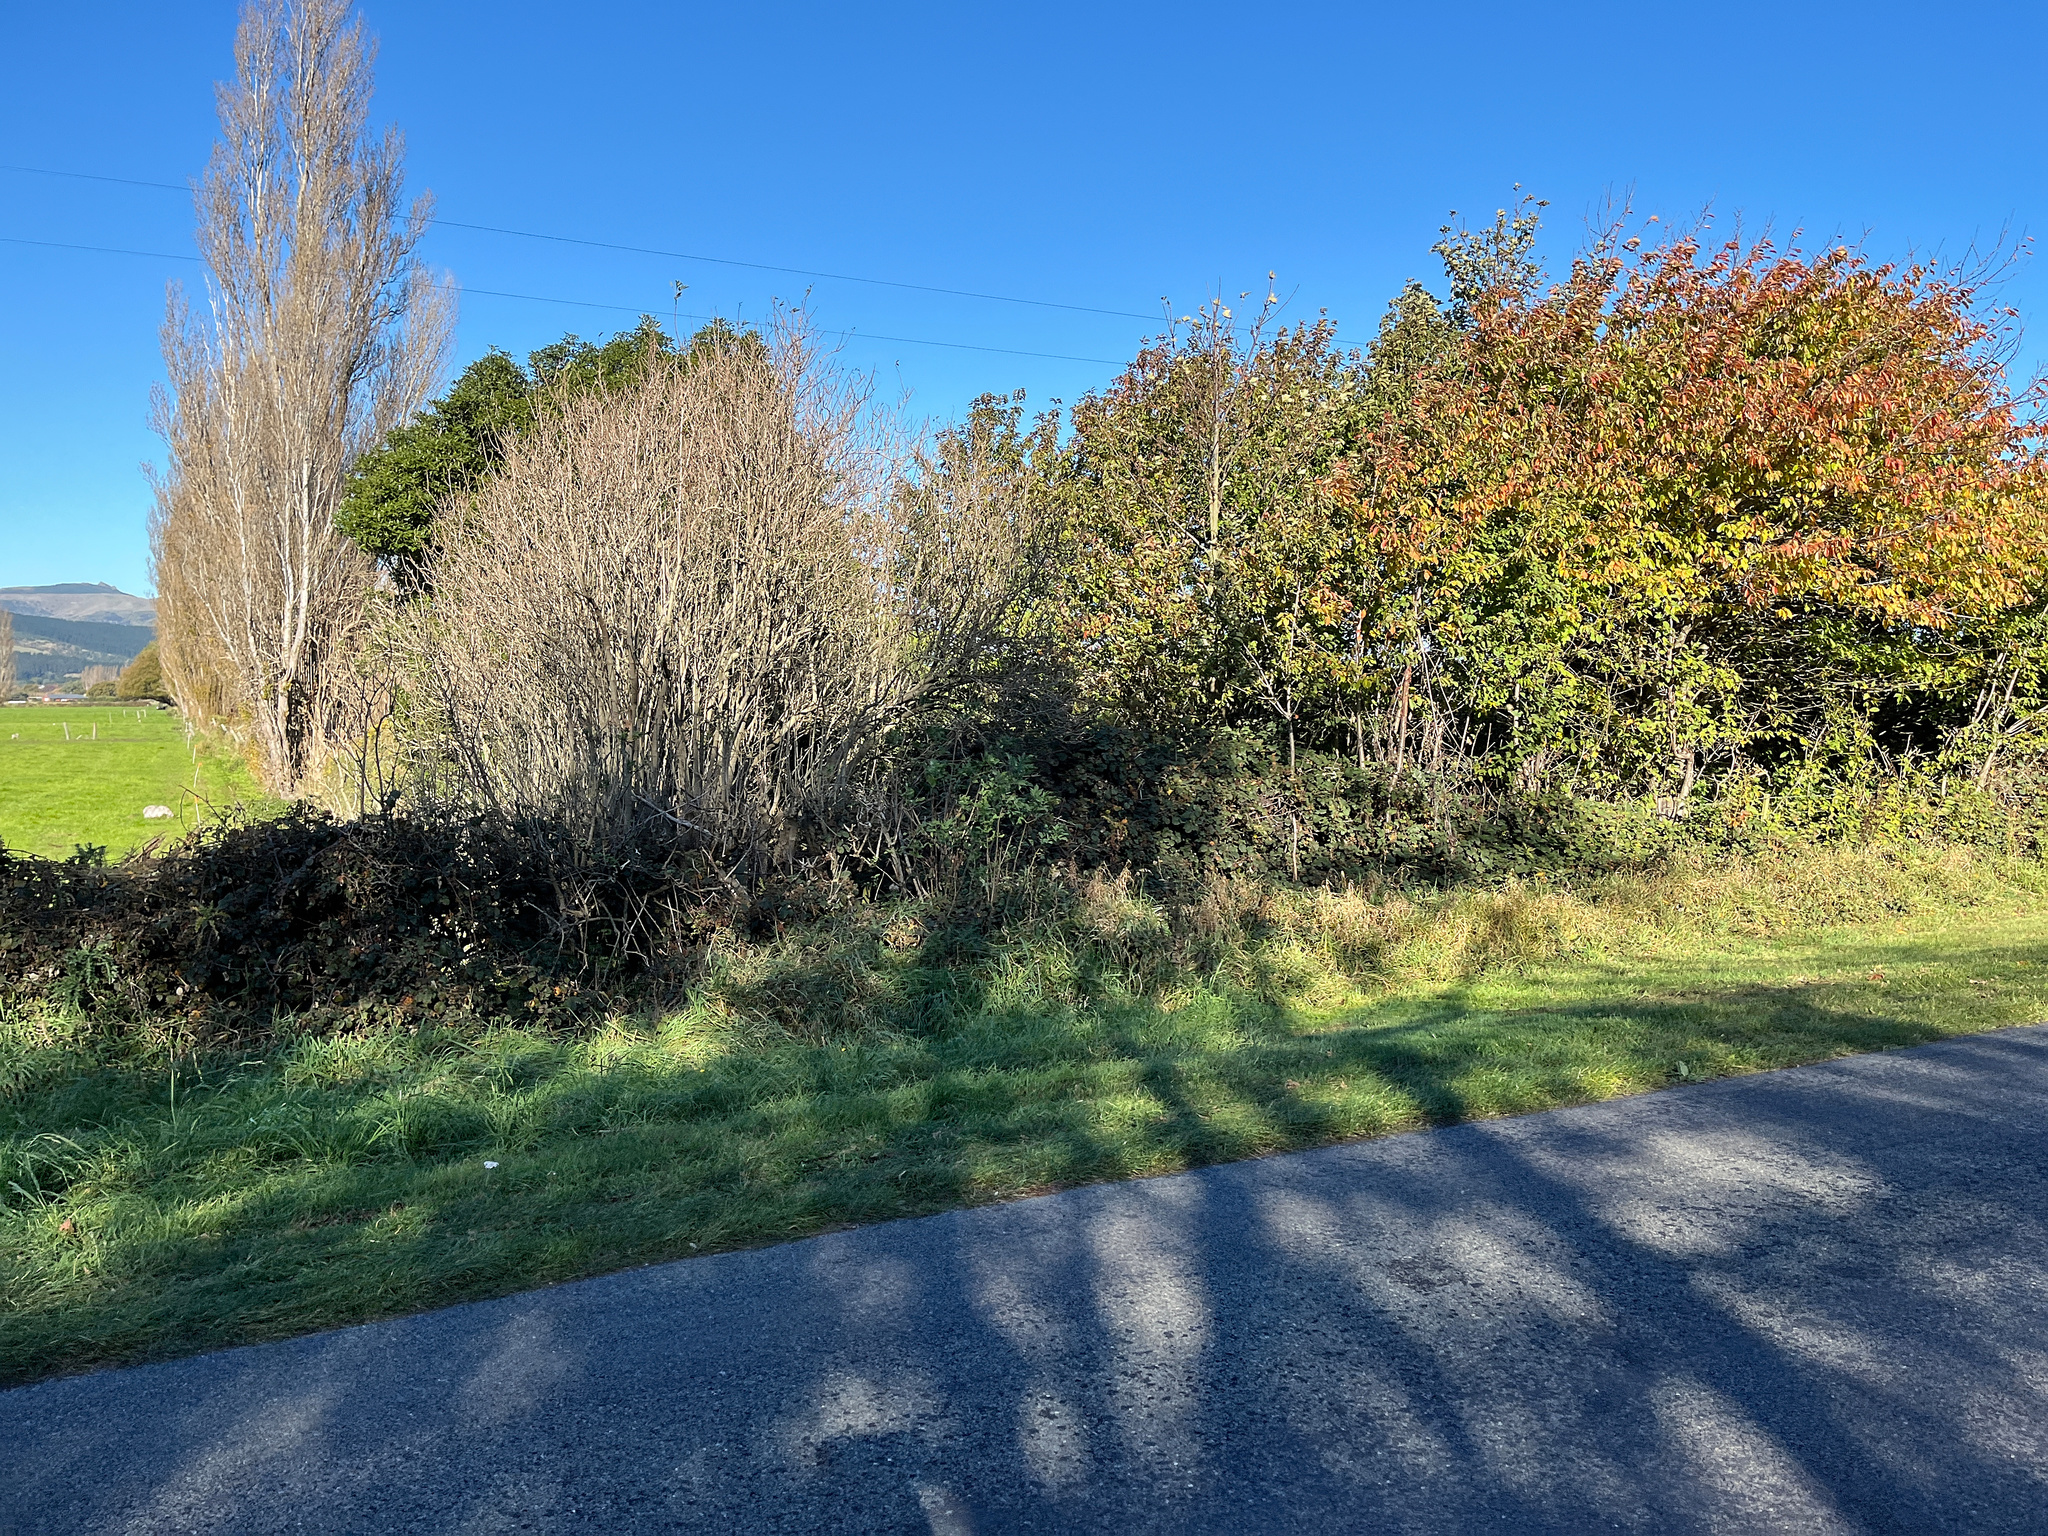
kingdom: Plantae
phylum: Tracheophyta
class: Magnoliopsida
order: Sapindales
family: Sapindaceae
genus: Acer
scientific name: Acer pseudoplatanus
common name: Sycamore
